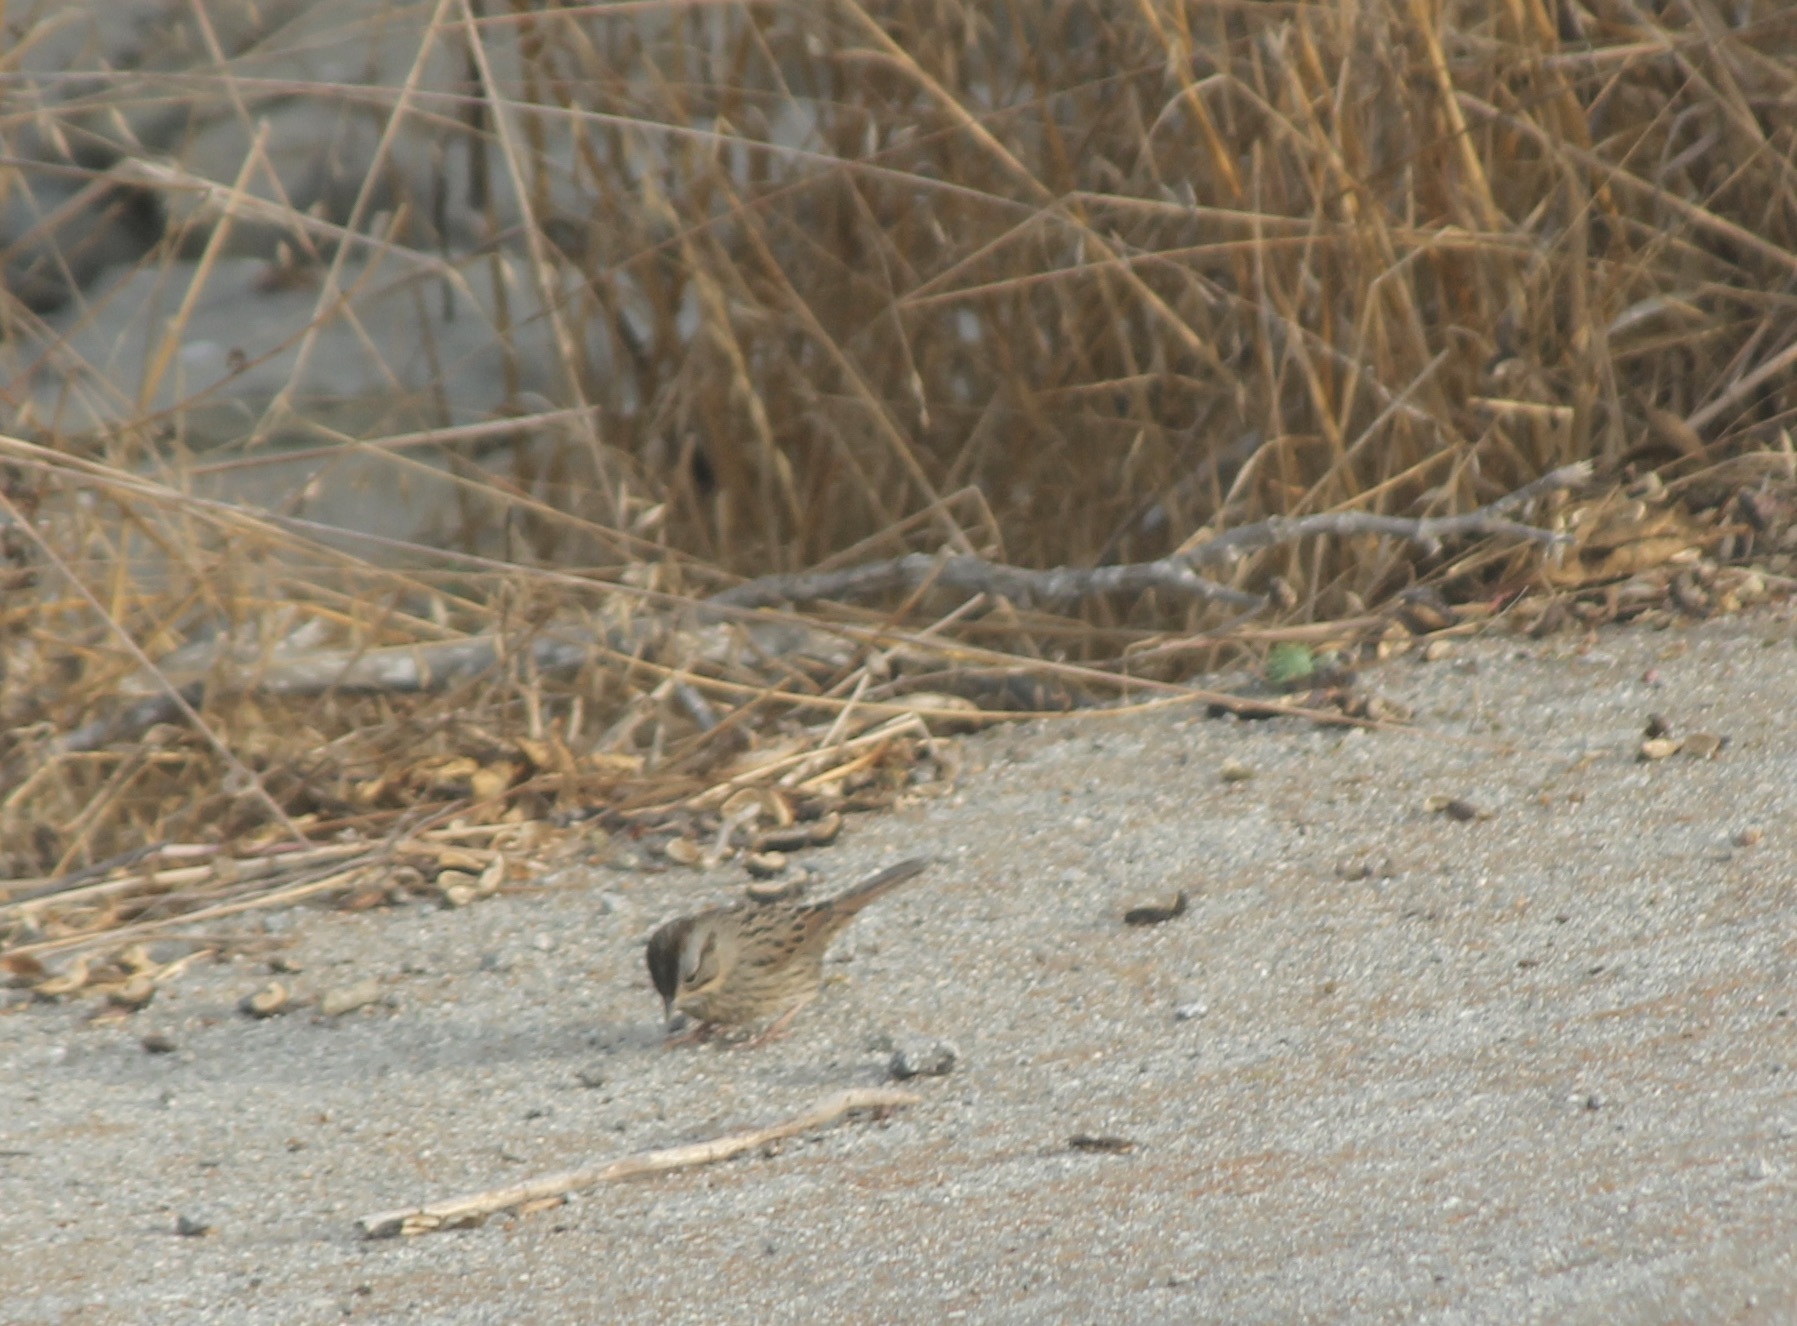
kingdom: Animalia
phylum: Chordata
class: Aves
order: Passeriformes
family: Passerellidae
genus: Melospiza
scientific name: Melospiza lincolnii
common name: Lincoln's sparrow
